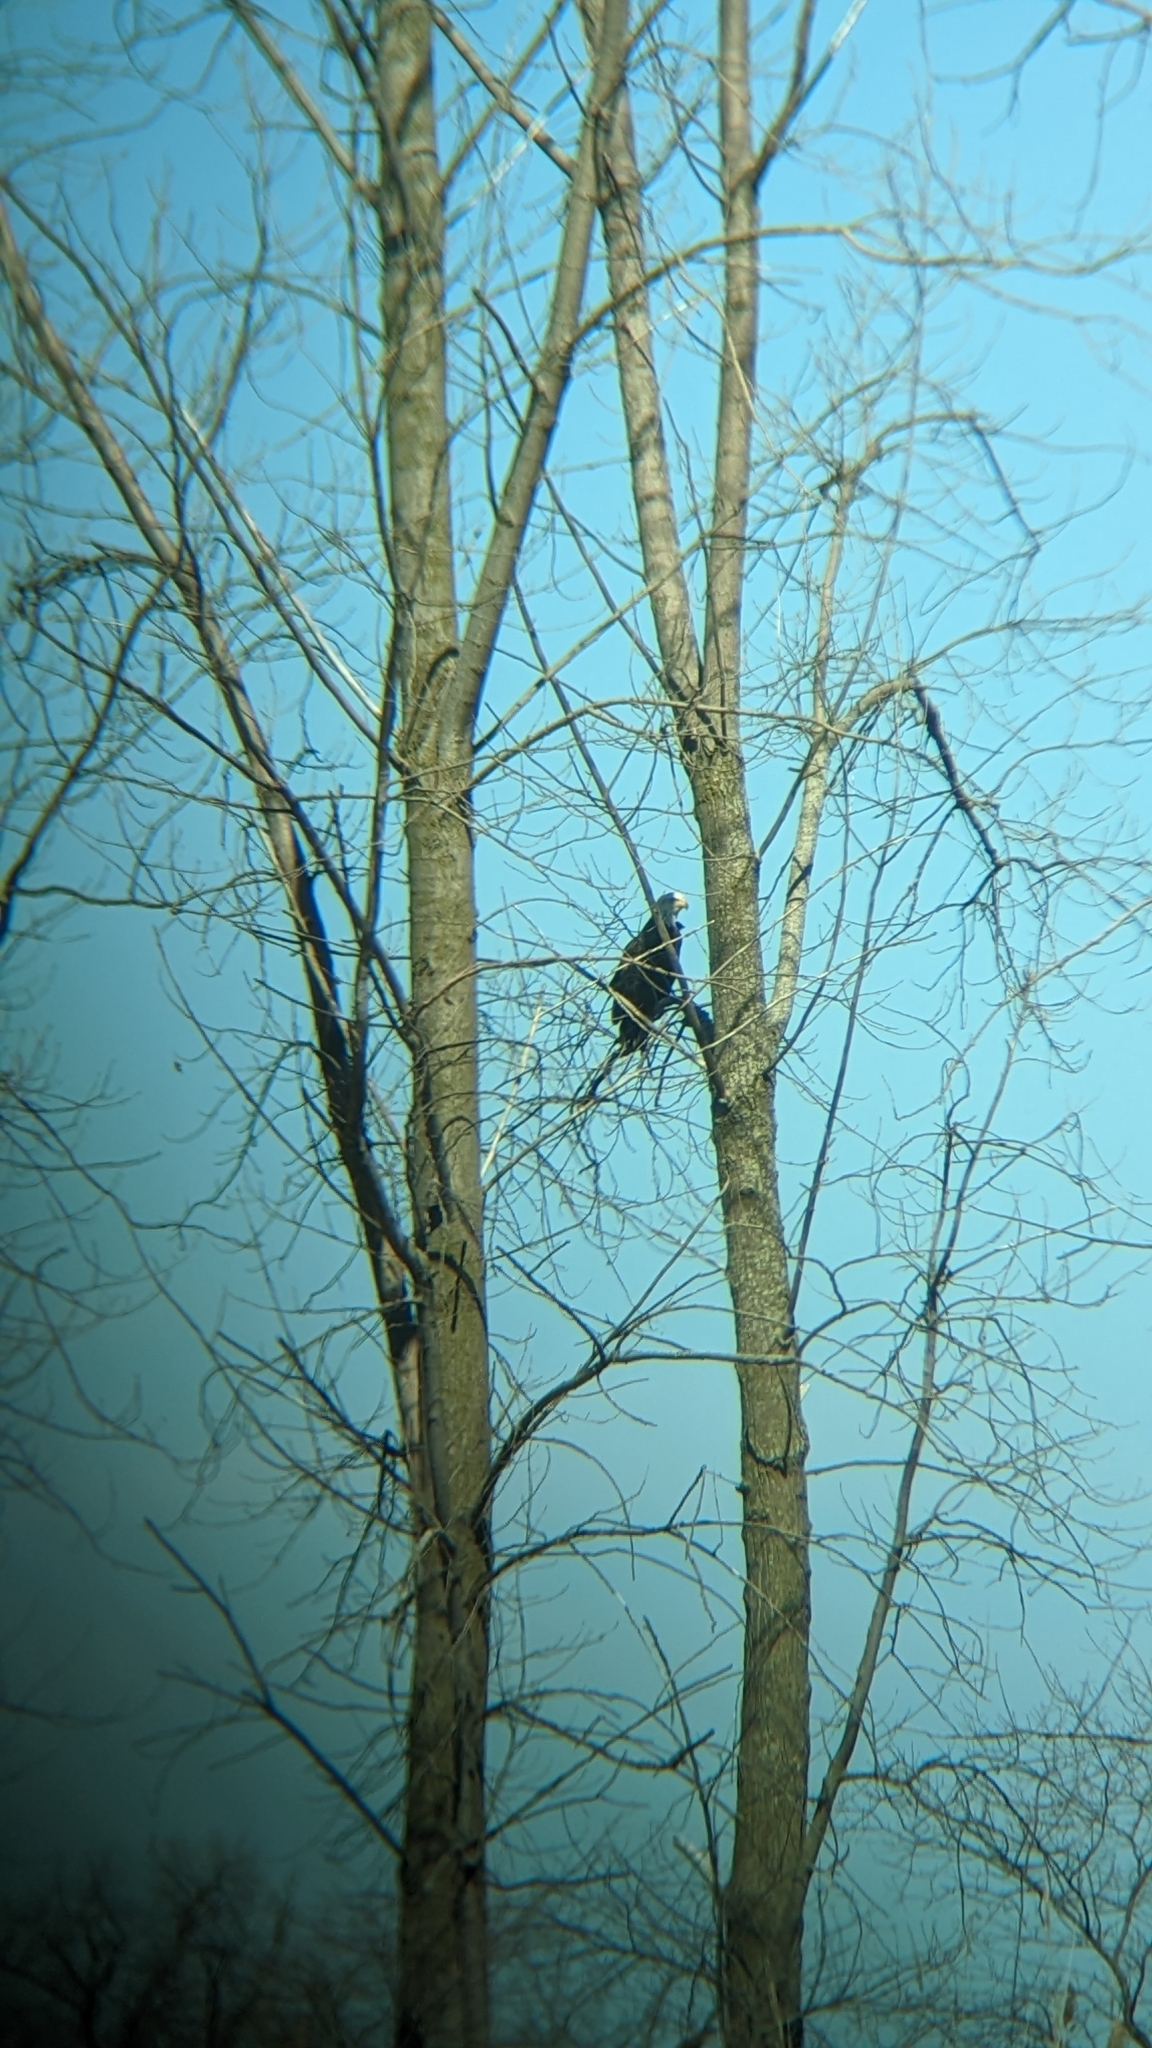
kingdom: Animalia
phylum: Chordata
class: Aves
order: Accipitriformes
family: Accipitridae
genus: Haliaeetus
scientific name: Haliaeetus leucocephalus
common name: Bald eagle
